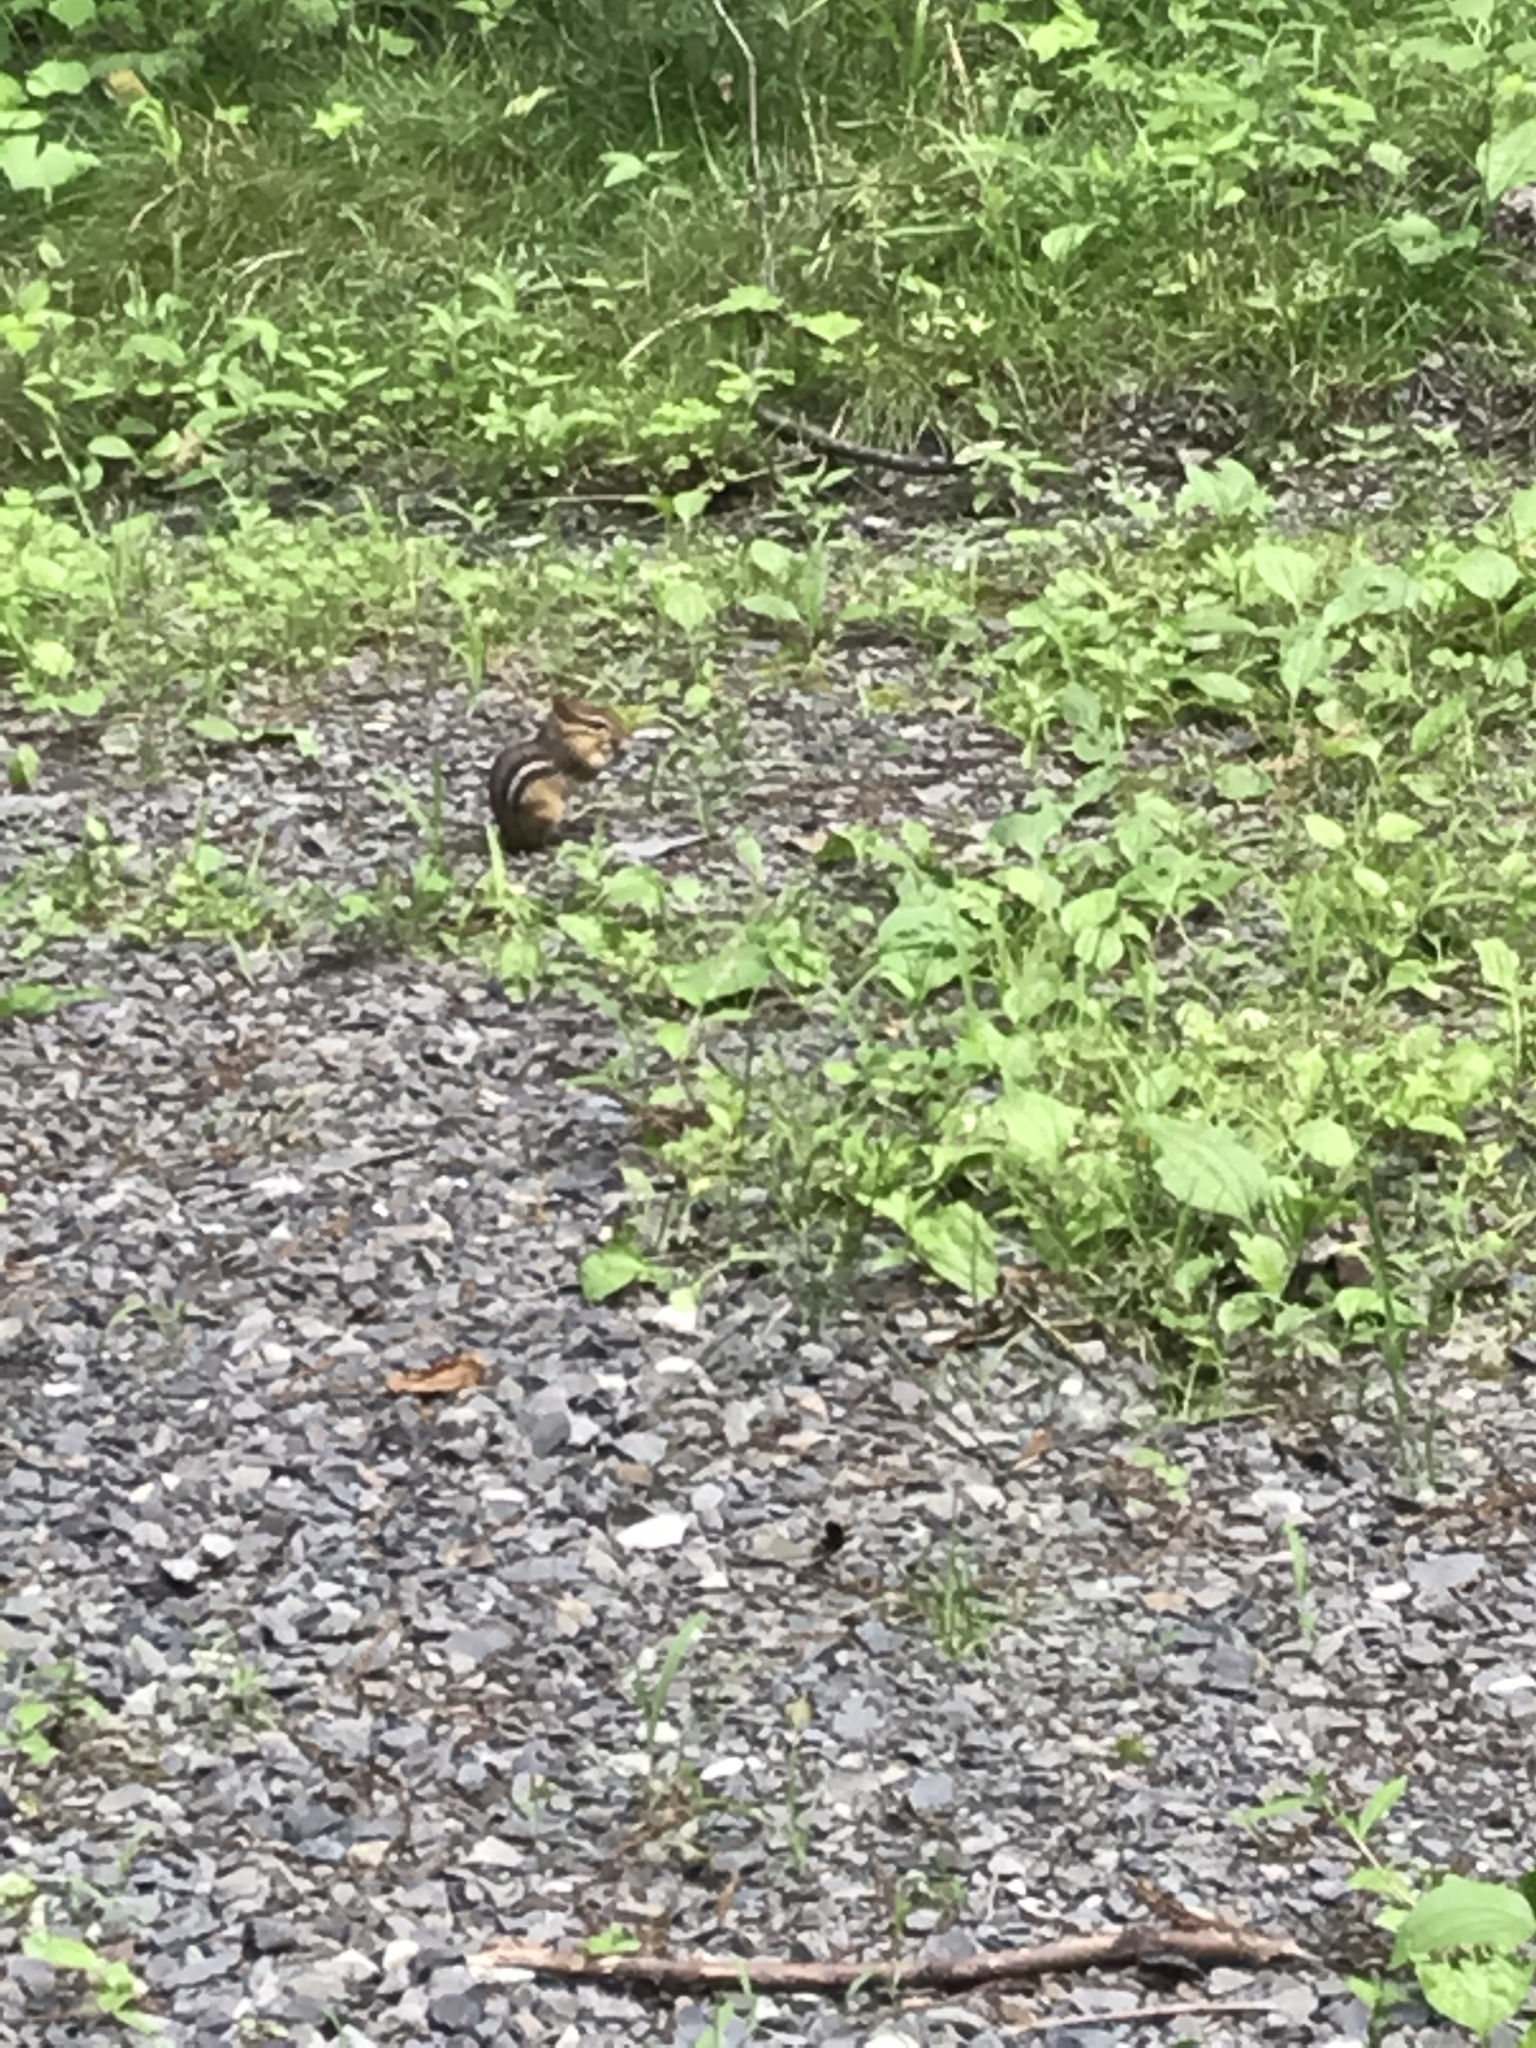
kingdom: Animalia
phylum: Chordata
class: Mammalia
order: Rodentia
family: Sciuridae
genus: Tamias
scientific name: Tamias striatus
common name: Eastern chipmunk
